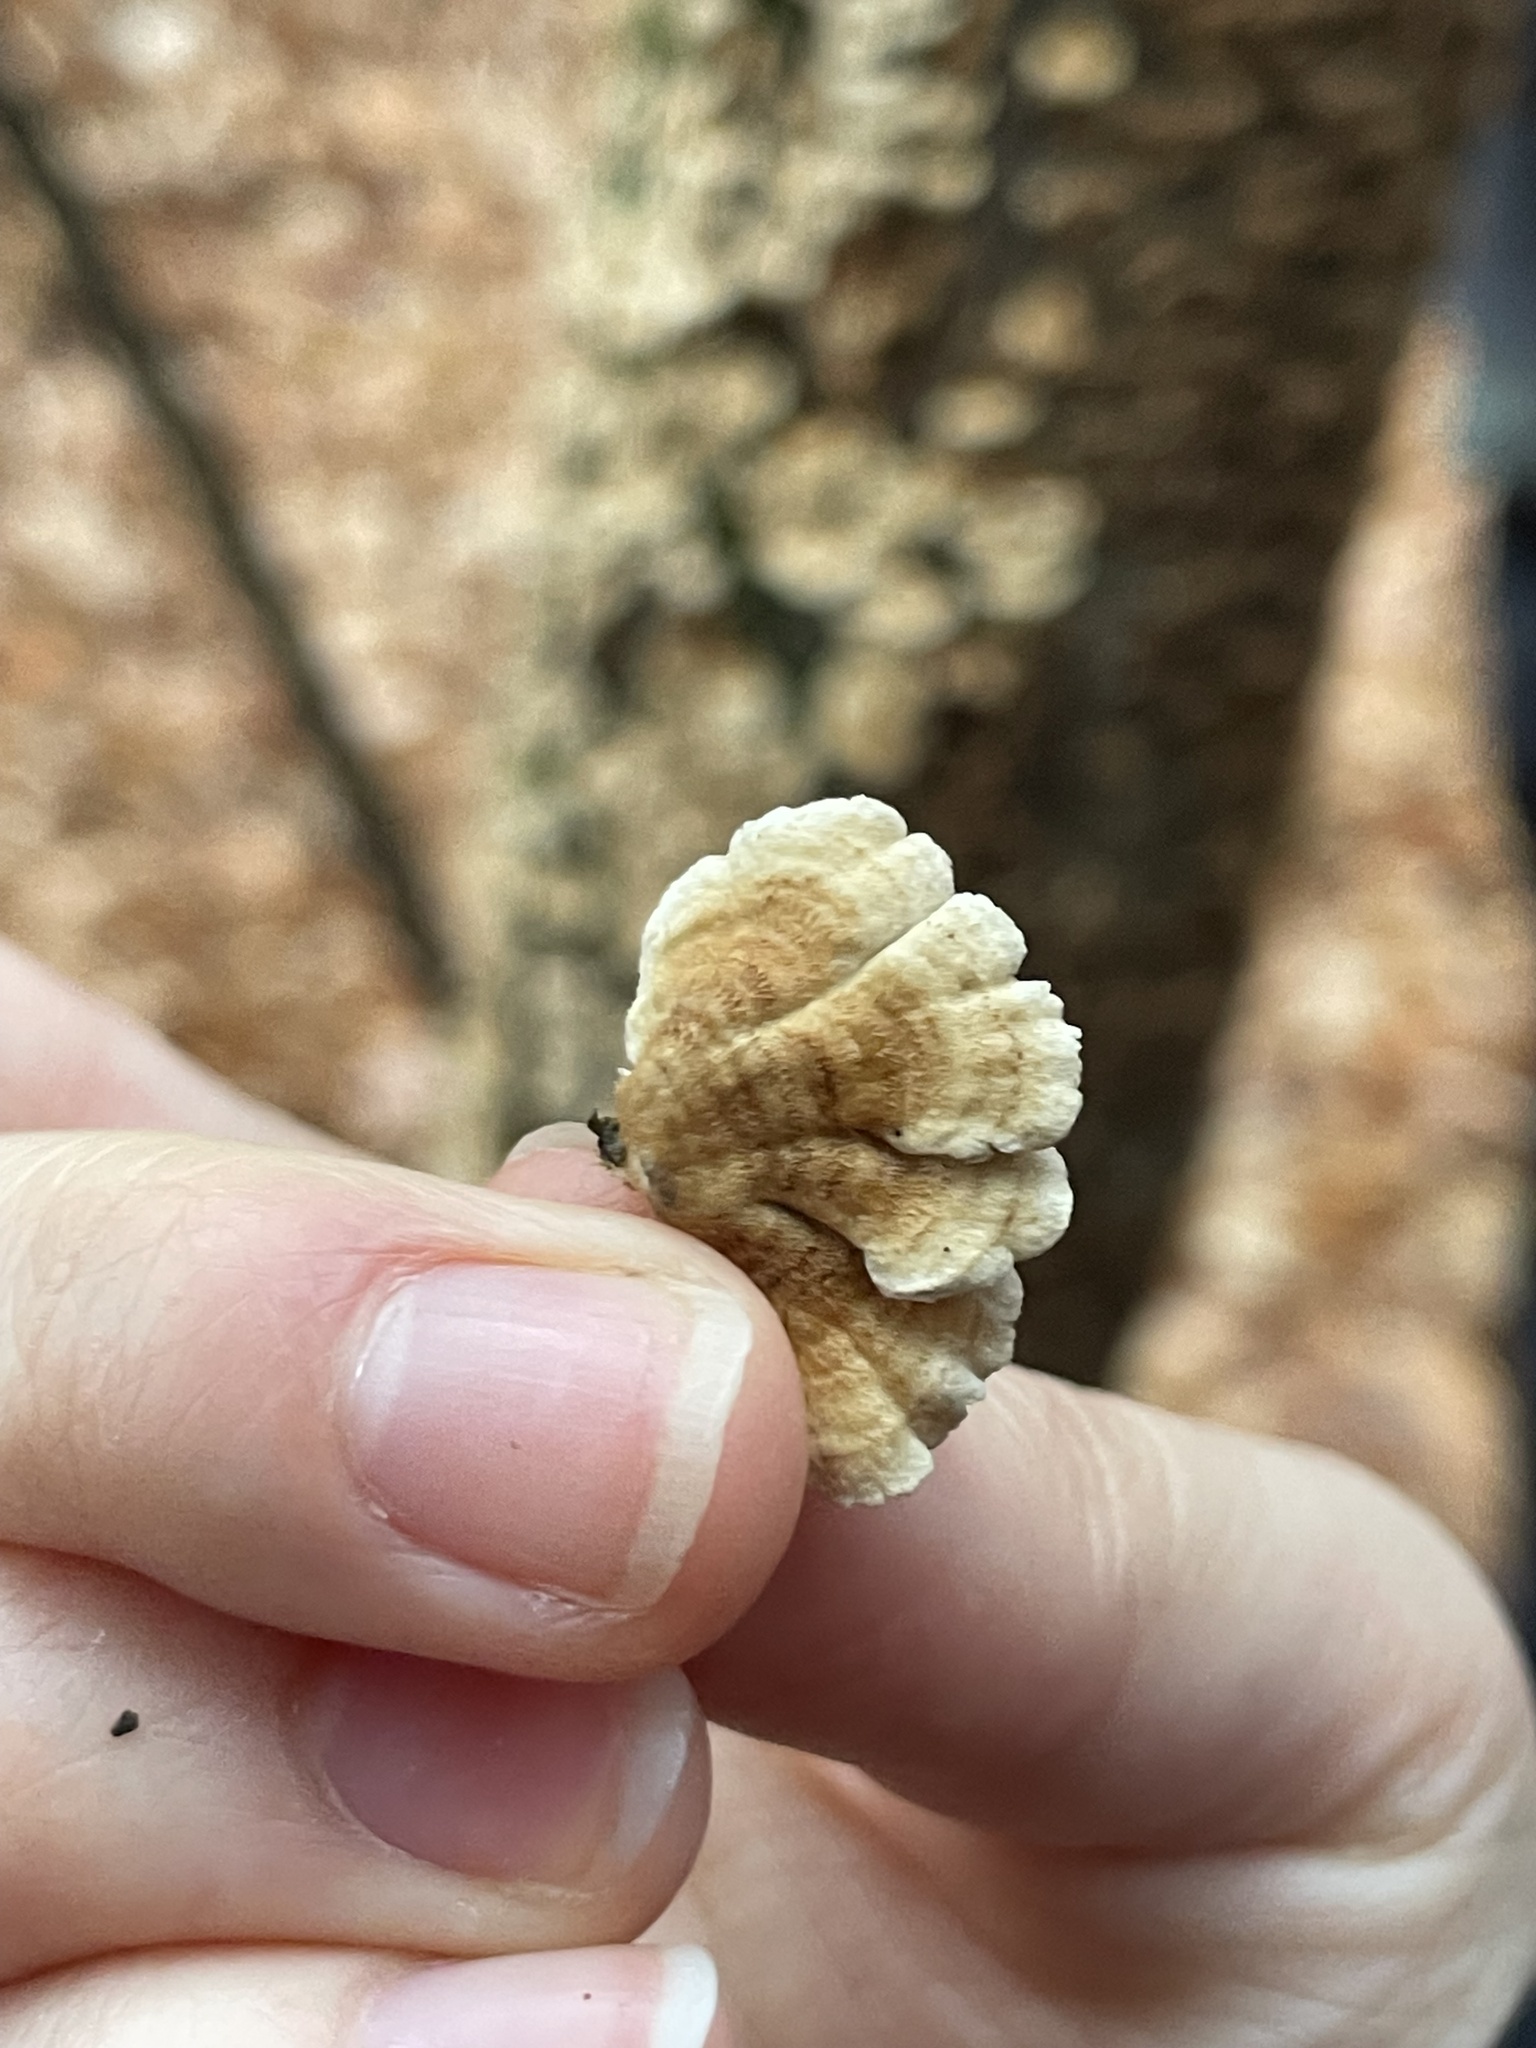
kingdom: Fungi
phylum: Basidiomycota
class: Agaricomycetes
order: Amylocorticiales
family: Amylocorticiaceae
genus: Plicaturopsis
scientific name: Plicaturopsis crispa
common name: Crimped gill
